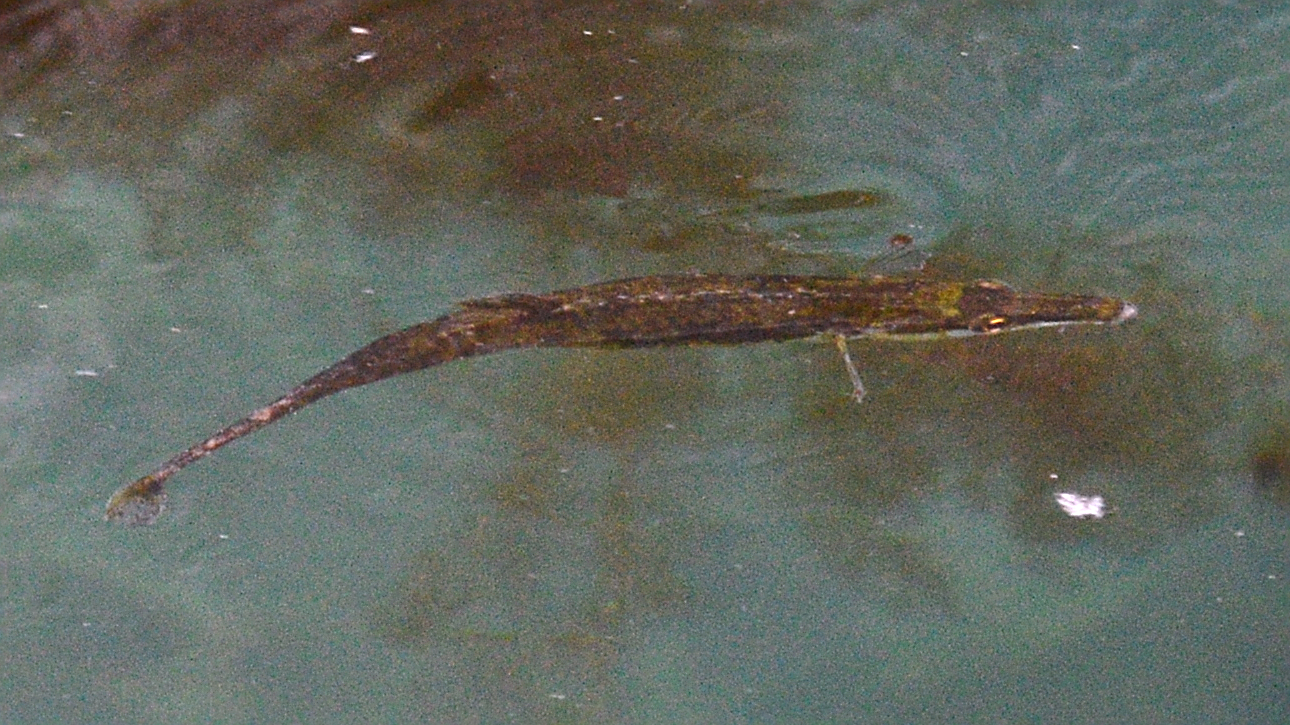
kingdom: Animalia
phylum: Chordata
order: Gasterosteiformes
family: Gasterosteidae
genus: Spinachia
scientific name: Spinachia spinachia
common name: Fifteen-spined stickleback
